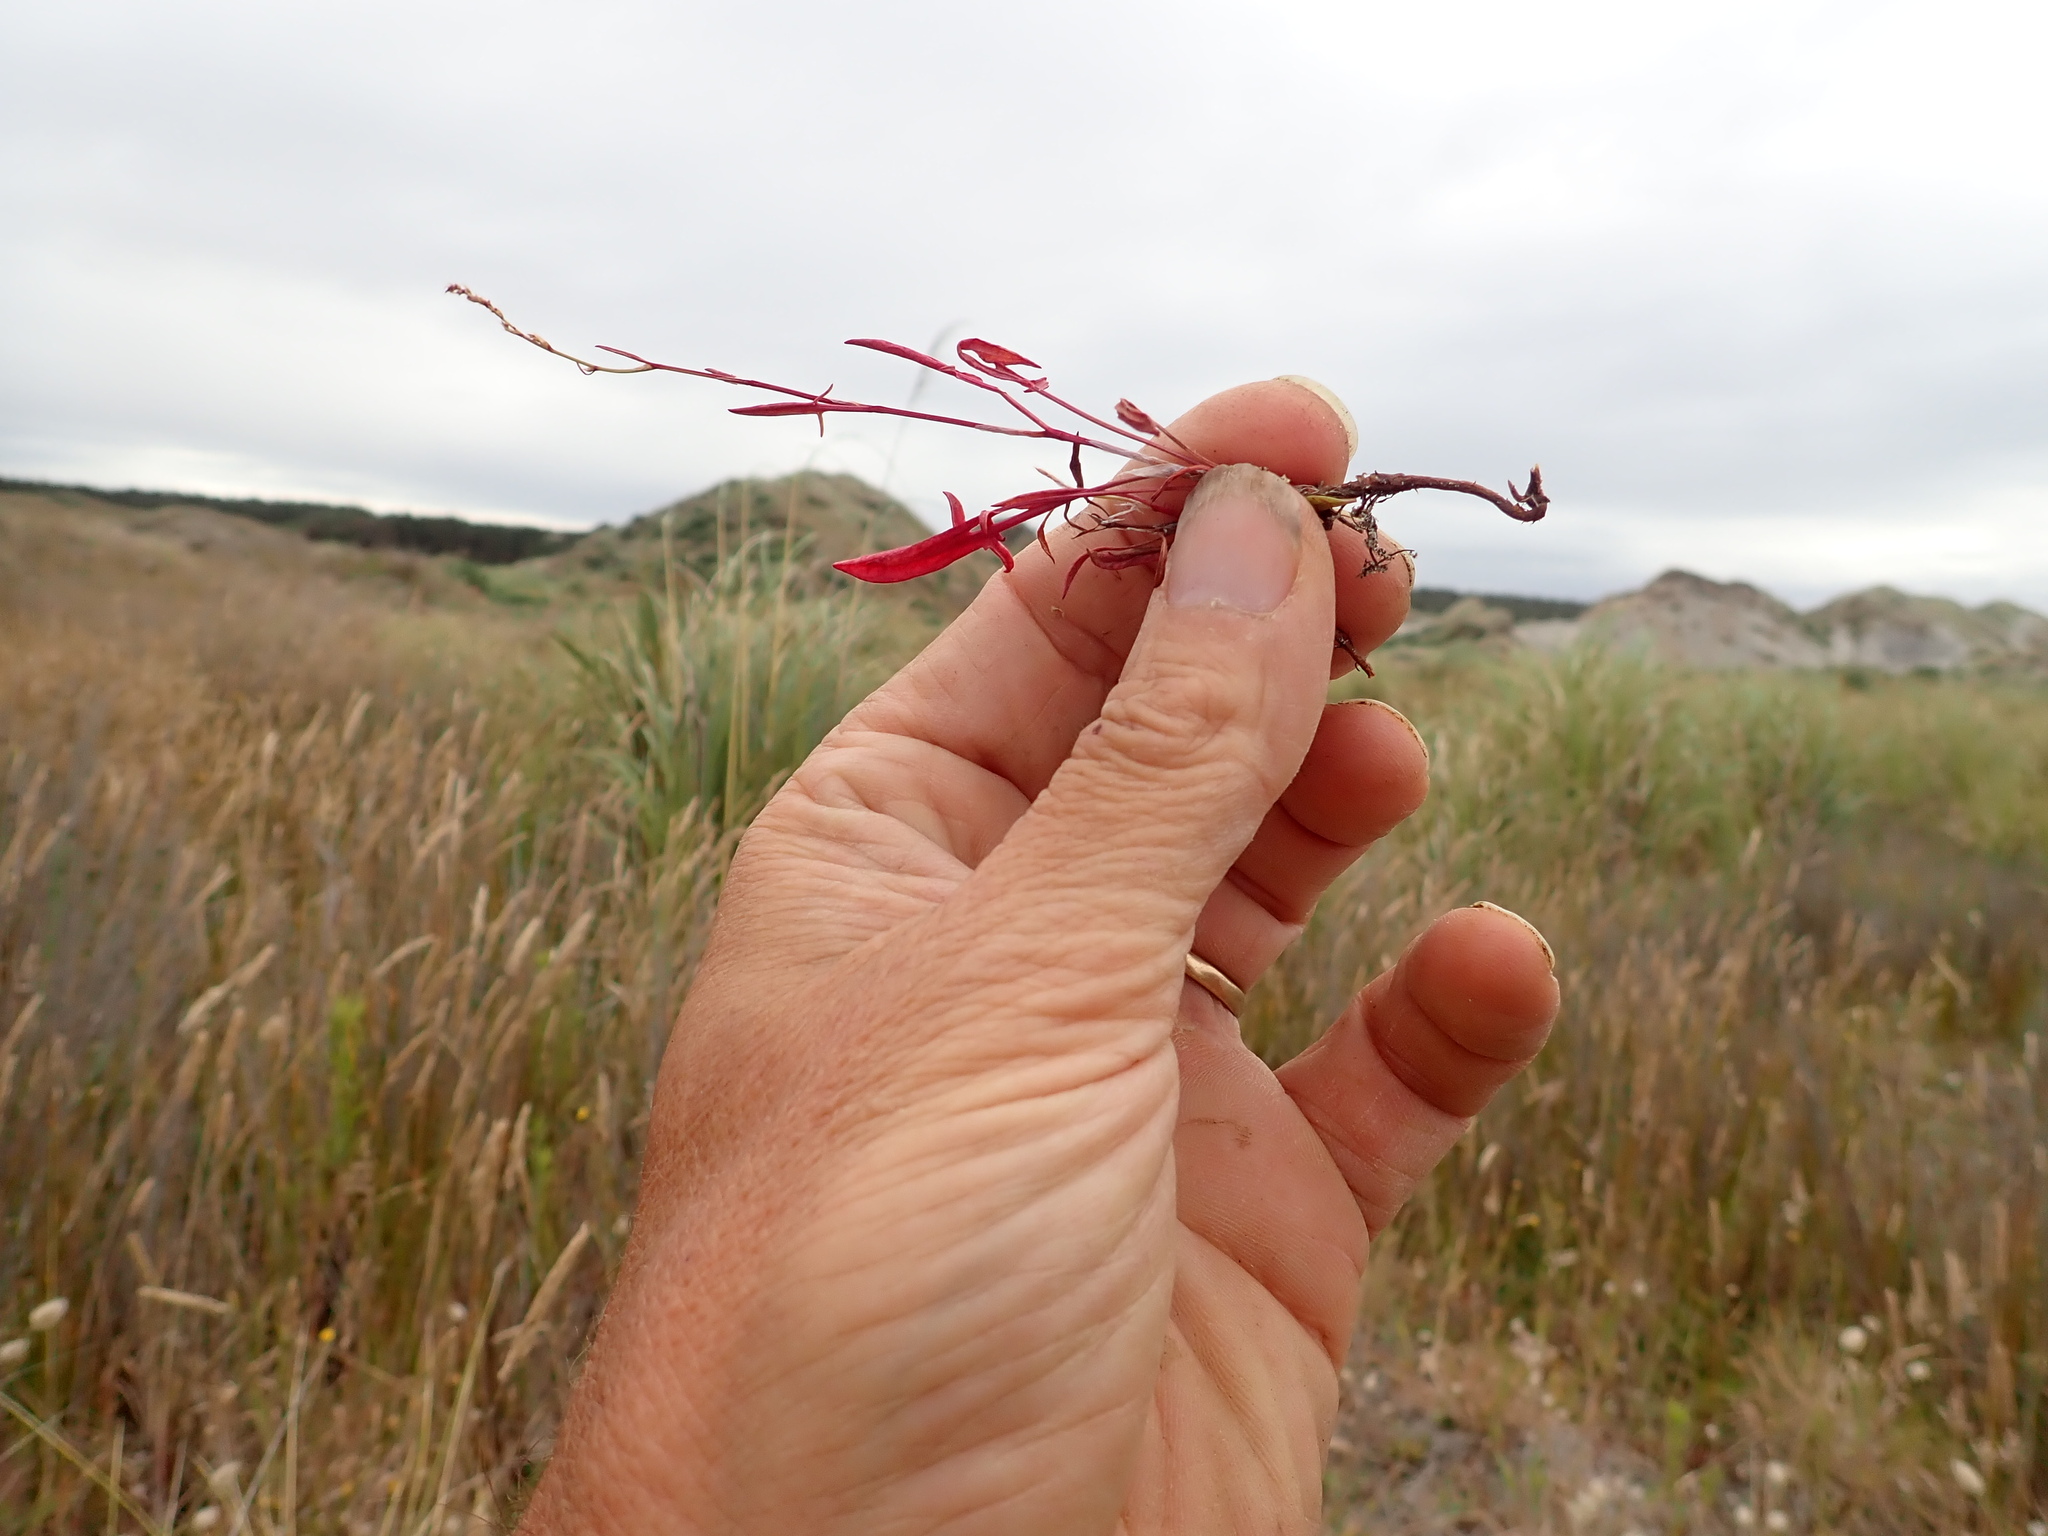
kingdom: Plantae
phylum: Tracheophyta
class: Magnoliopsida
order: Caryophyllales
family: Polygonaceae
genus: Rumex
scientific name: Rumex acetosella
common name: Common sheep sorrel
